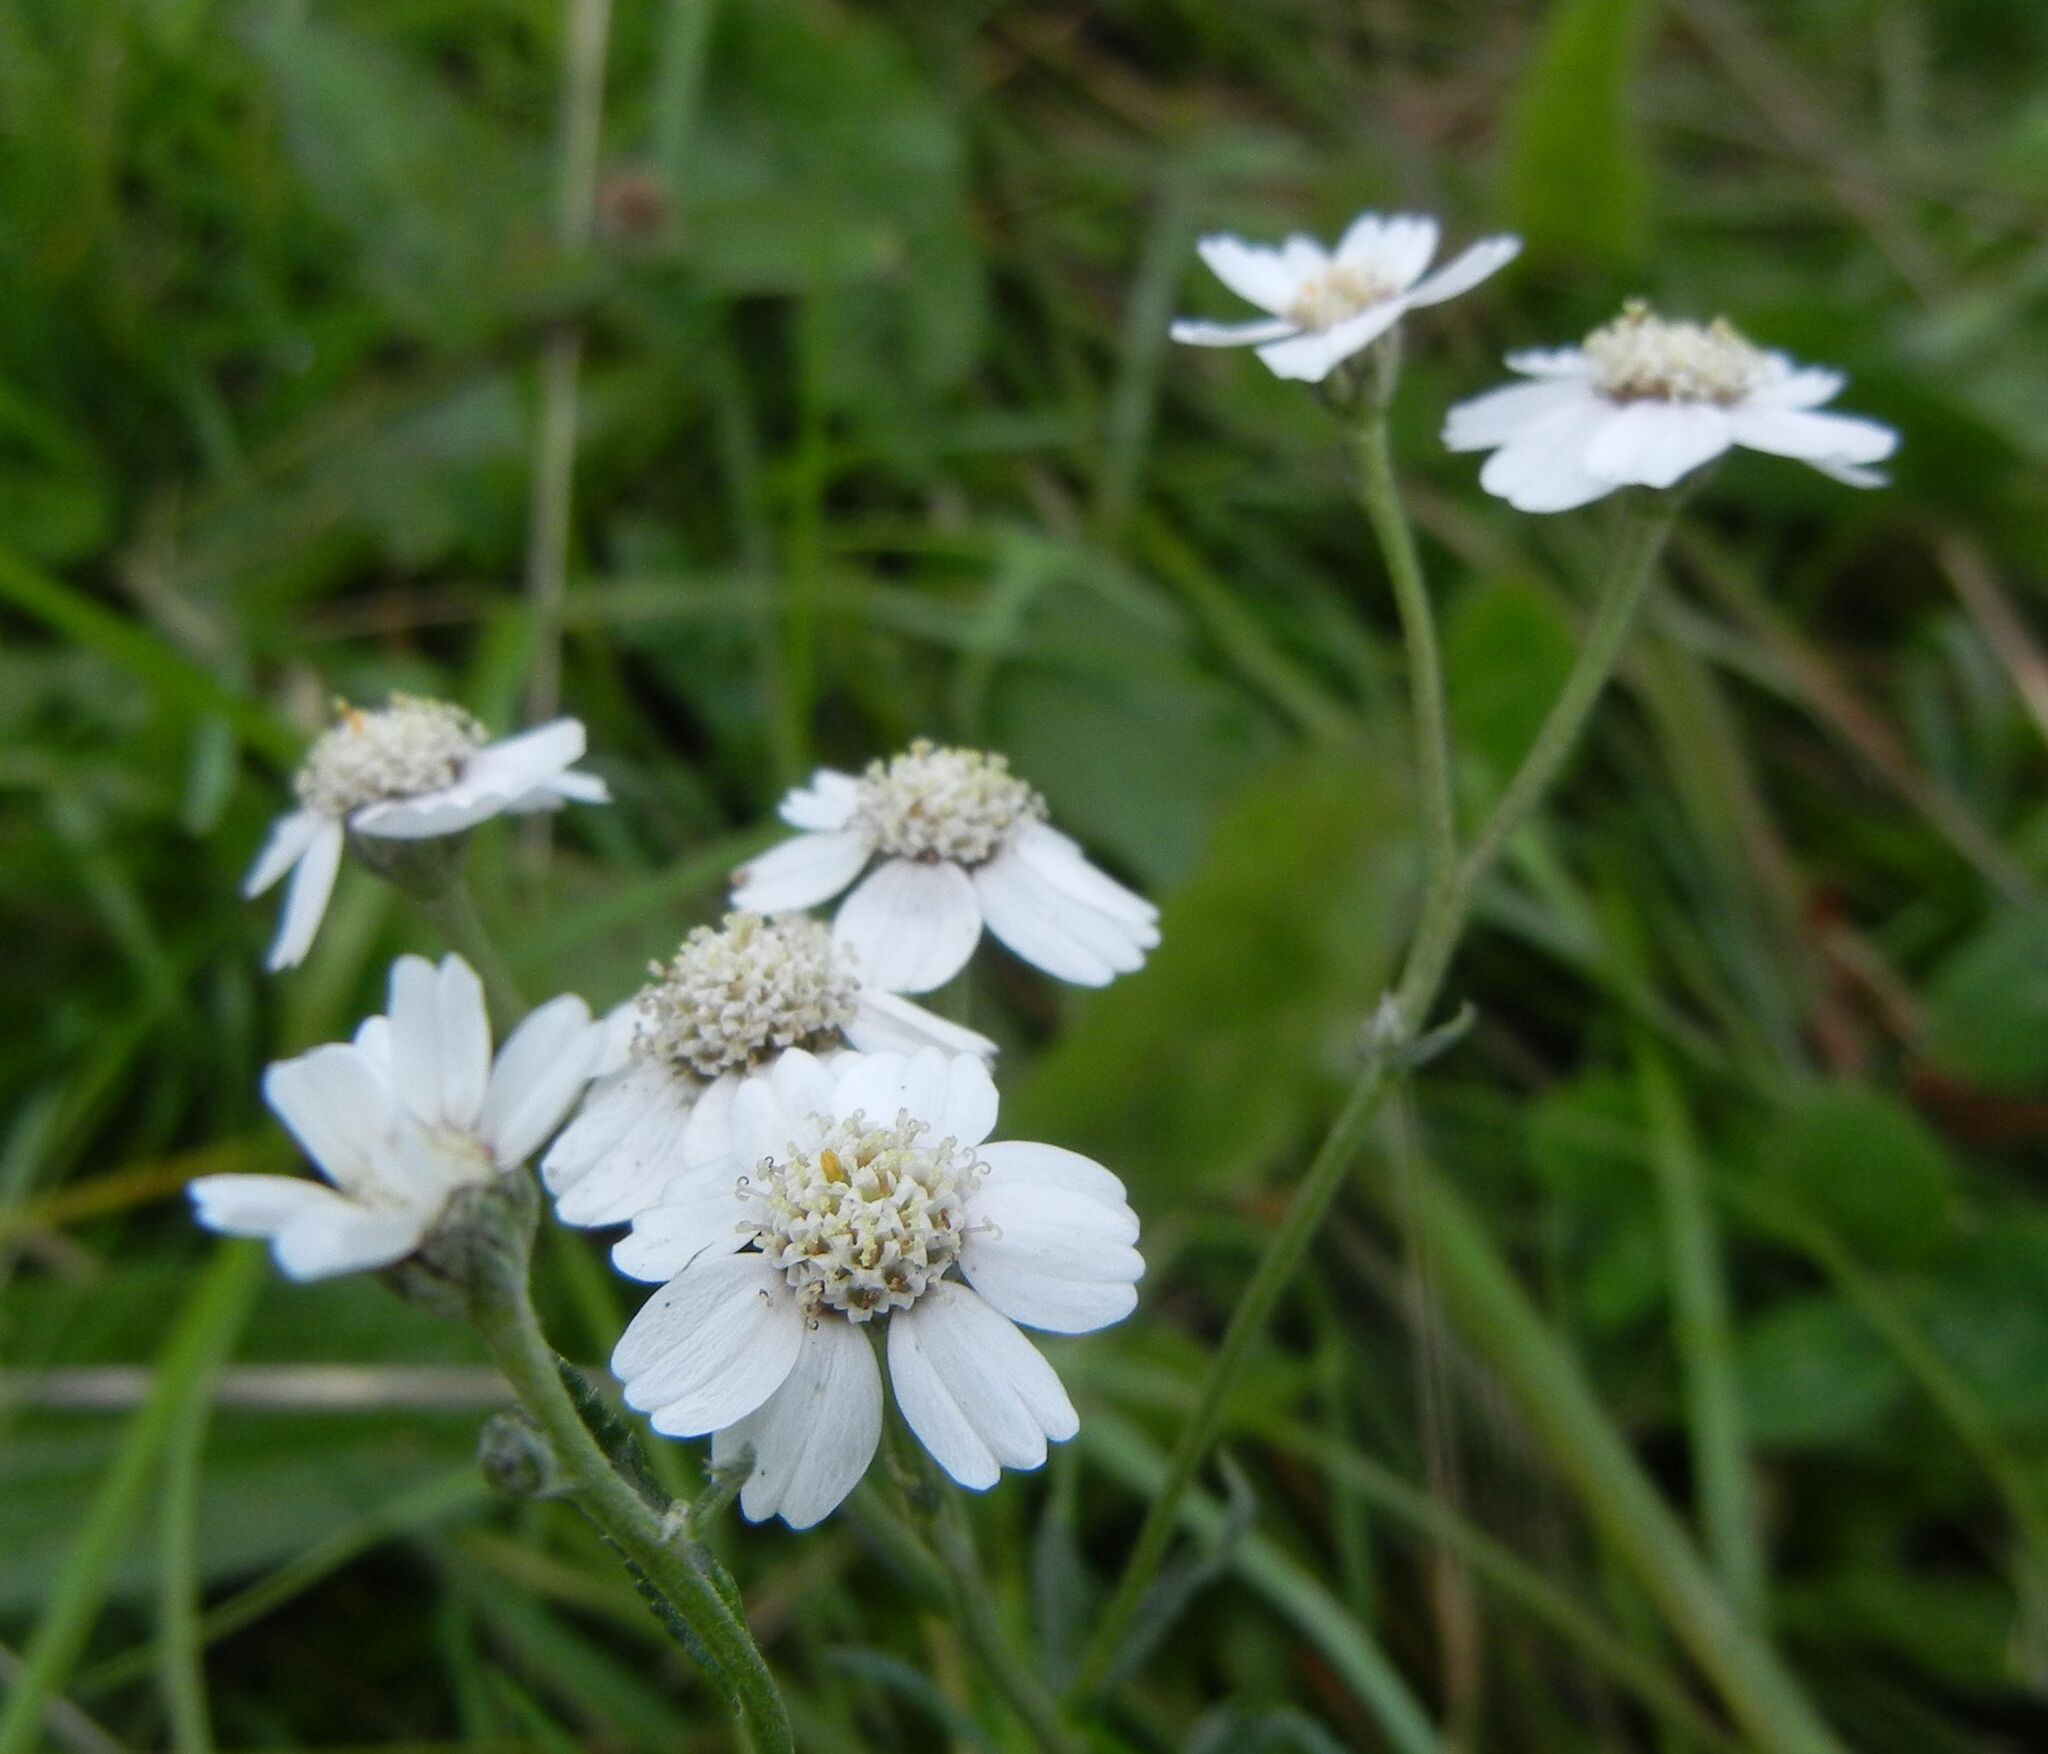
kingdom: Plantae
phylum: Tracheophyta
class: Magnoliopsida
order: Asterales
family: Asteraceae
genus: Achillea
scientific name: Achillea ptarmica
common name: Sneezeweed
